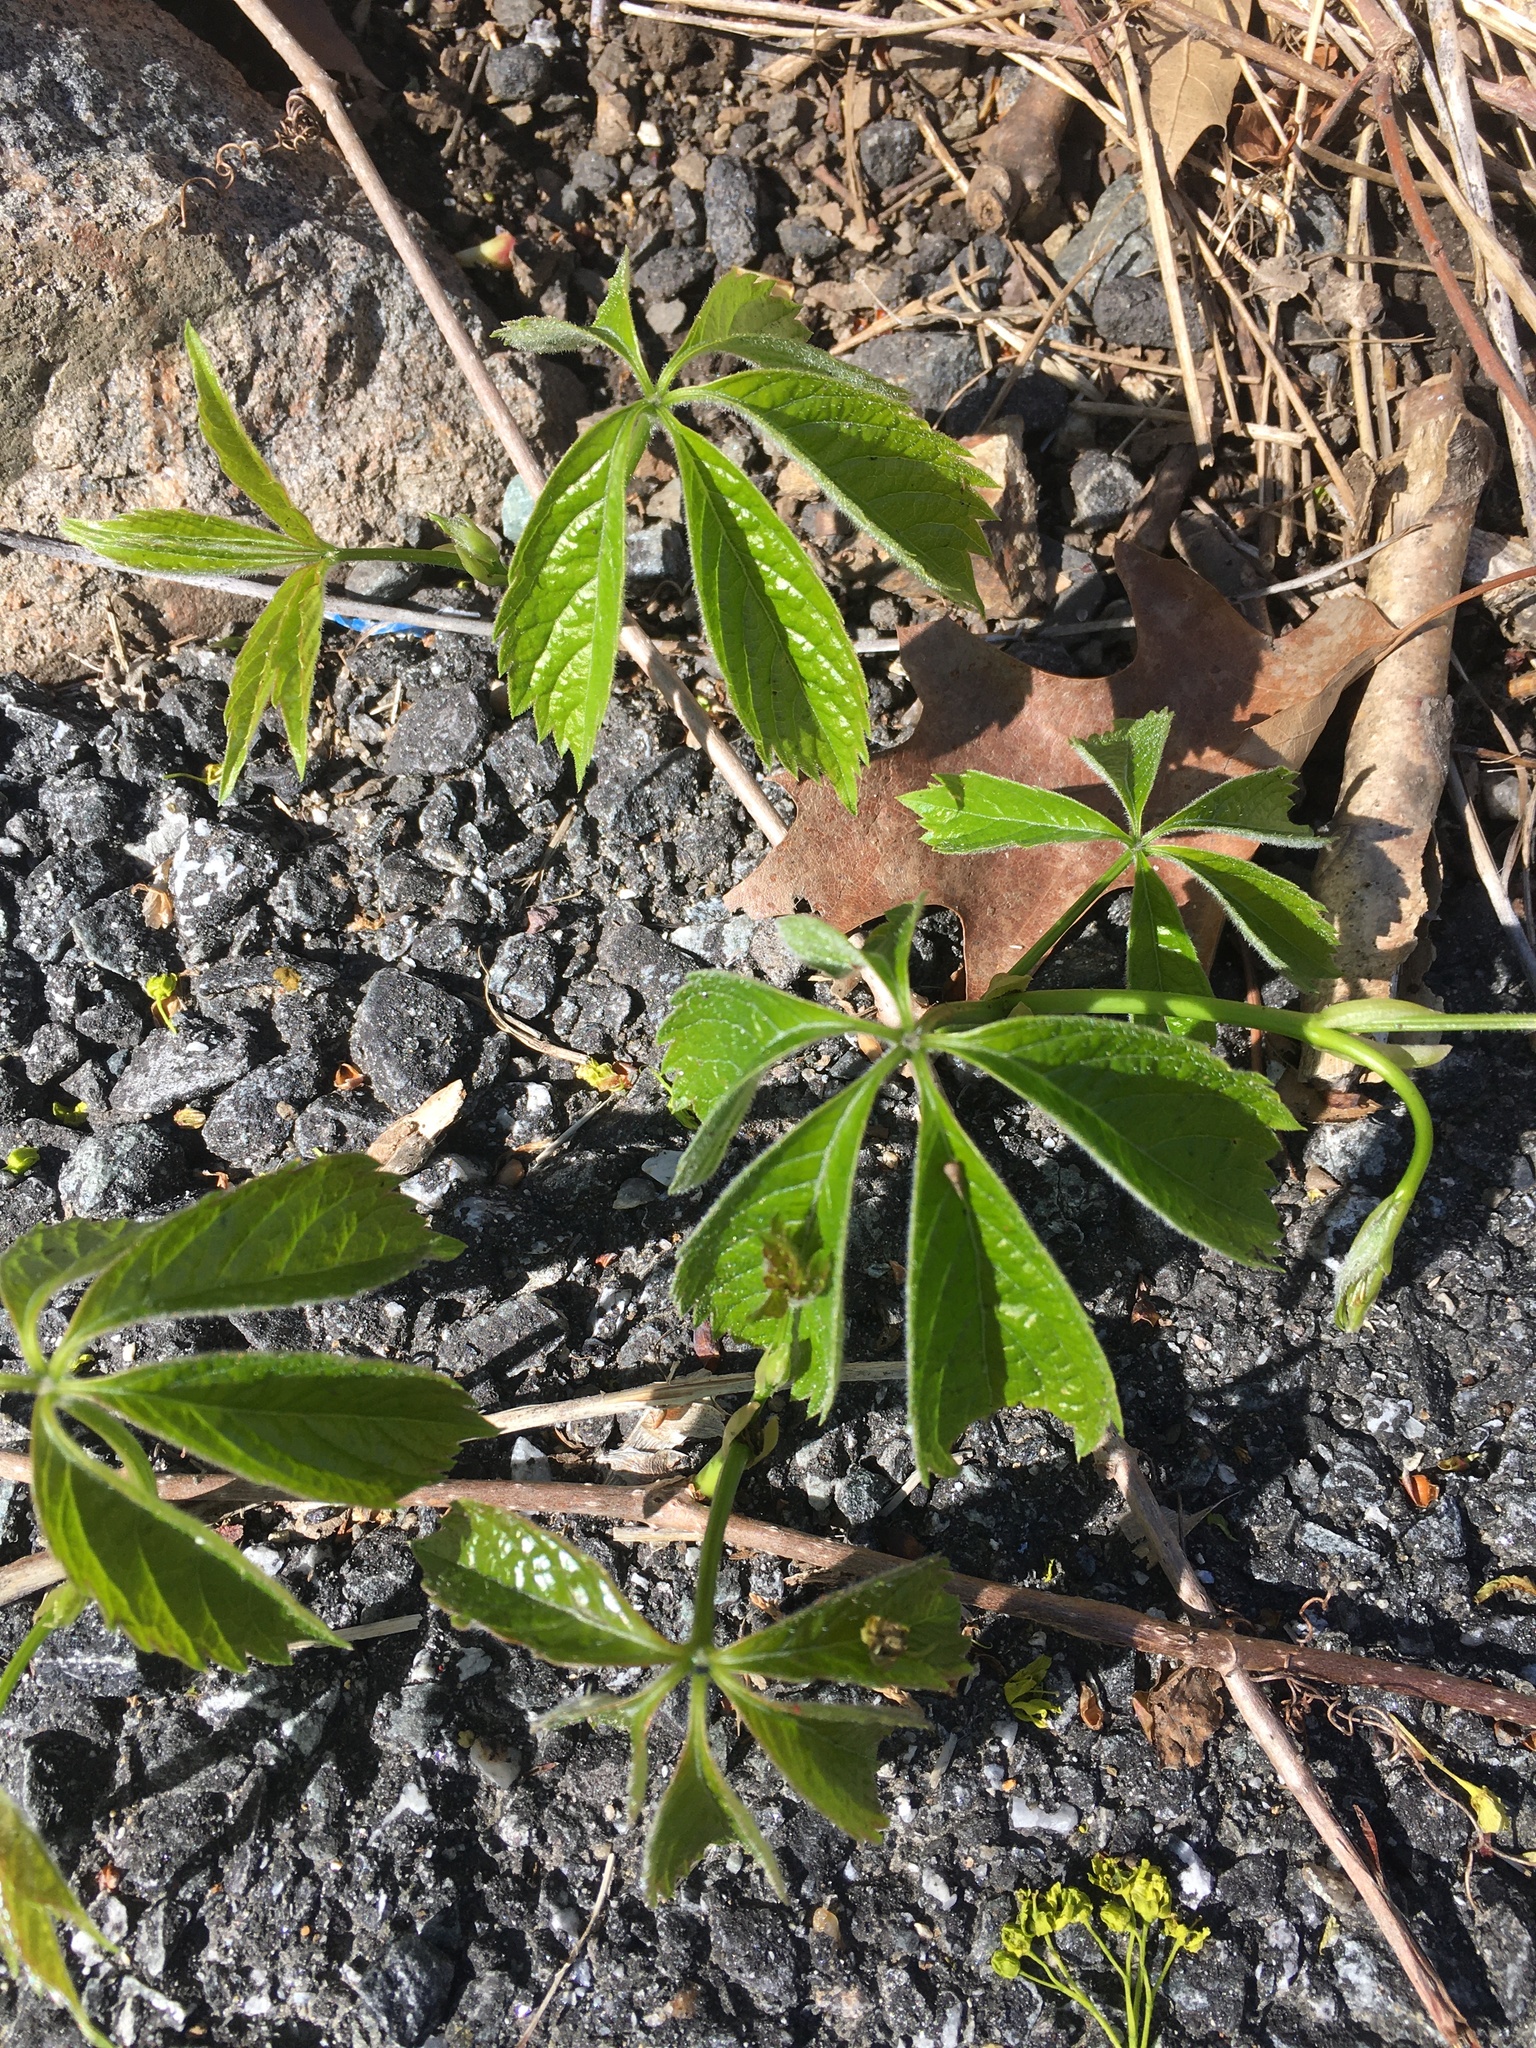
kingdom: Plantae
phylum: Tracheophyta
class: Magnoliopsida
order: Vitales
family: Vitaceae
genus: Parthenocissus
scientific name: Parthenocissus quinquefolia
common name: Virginia-creeper
